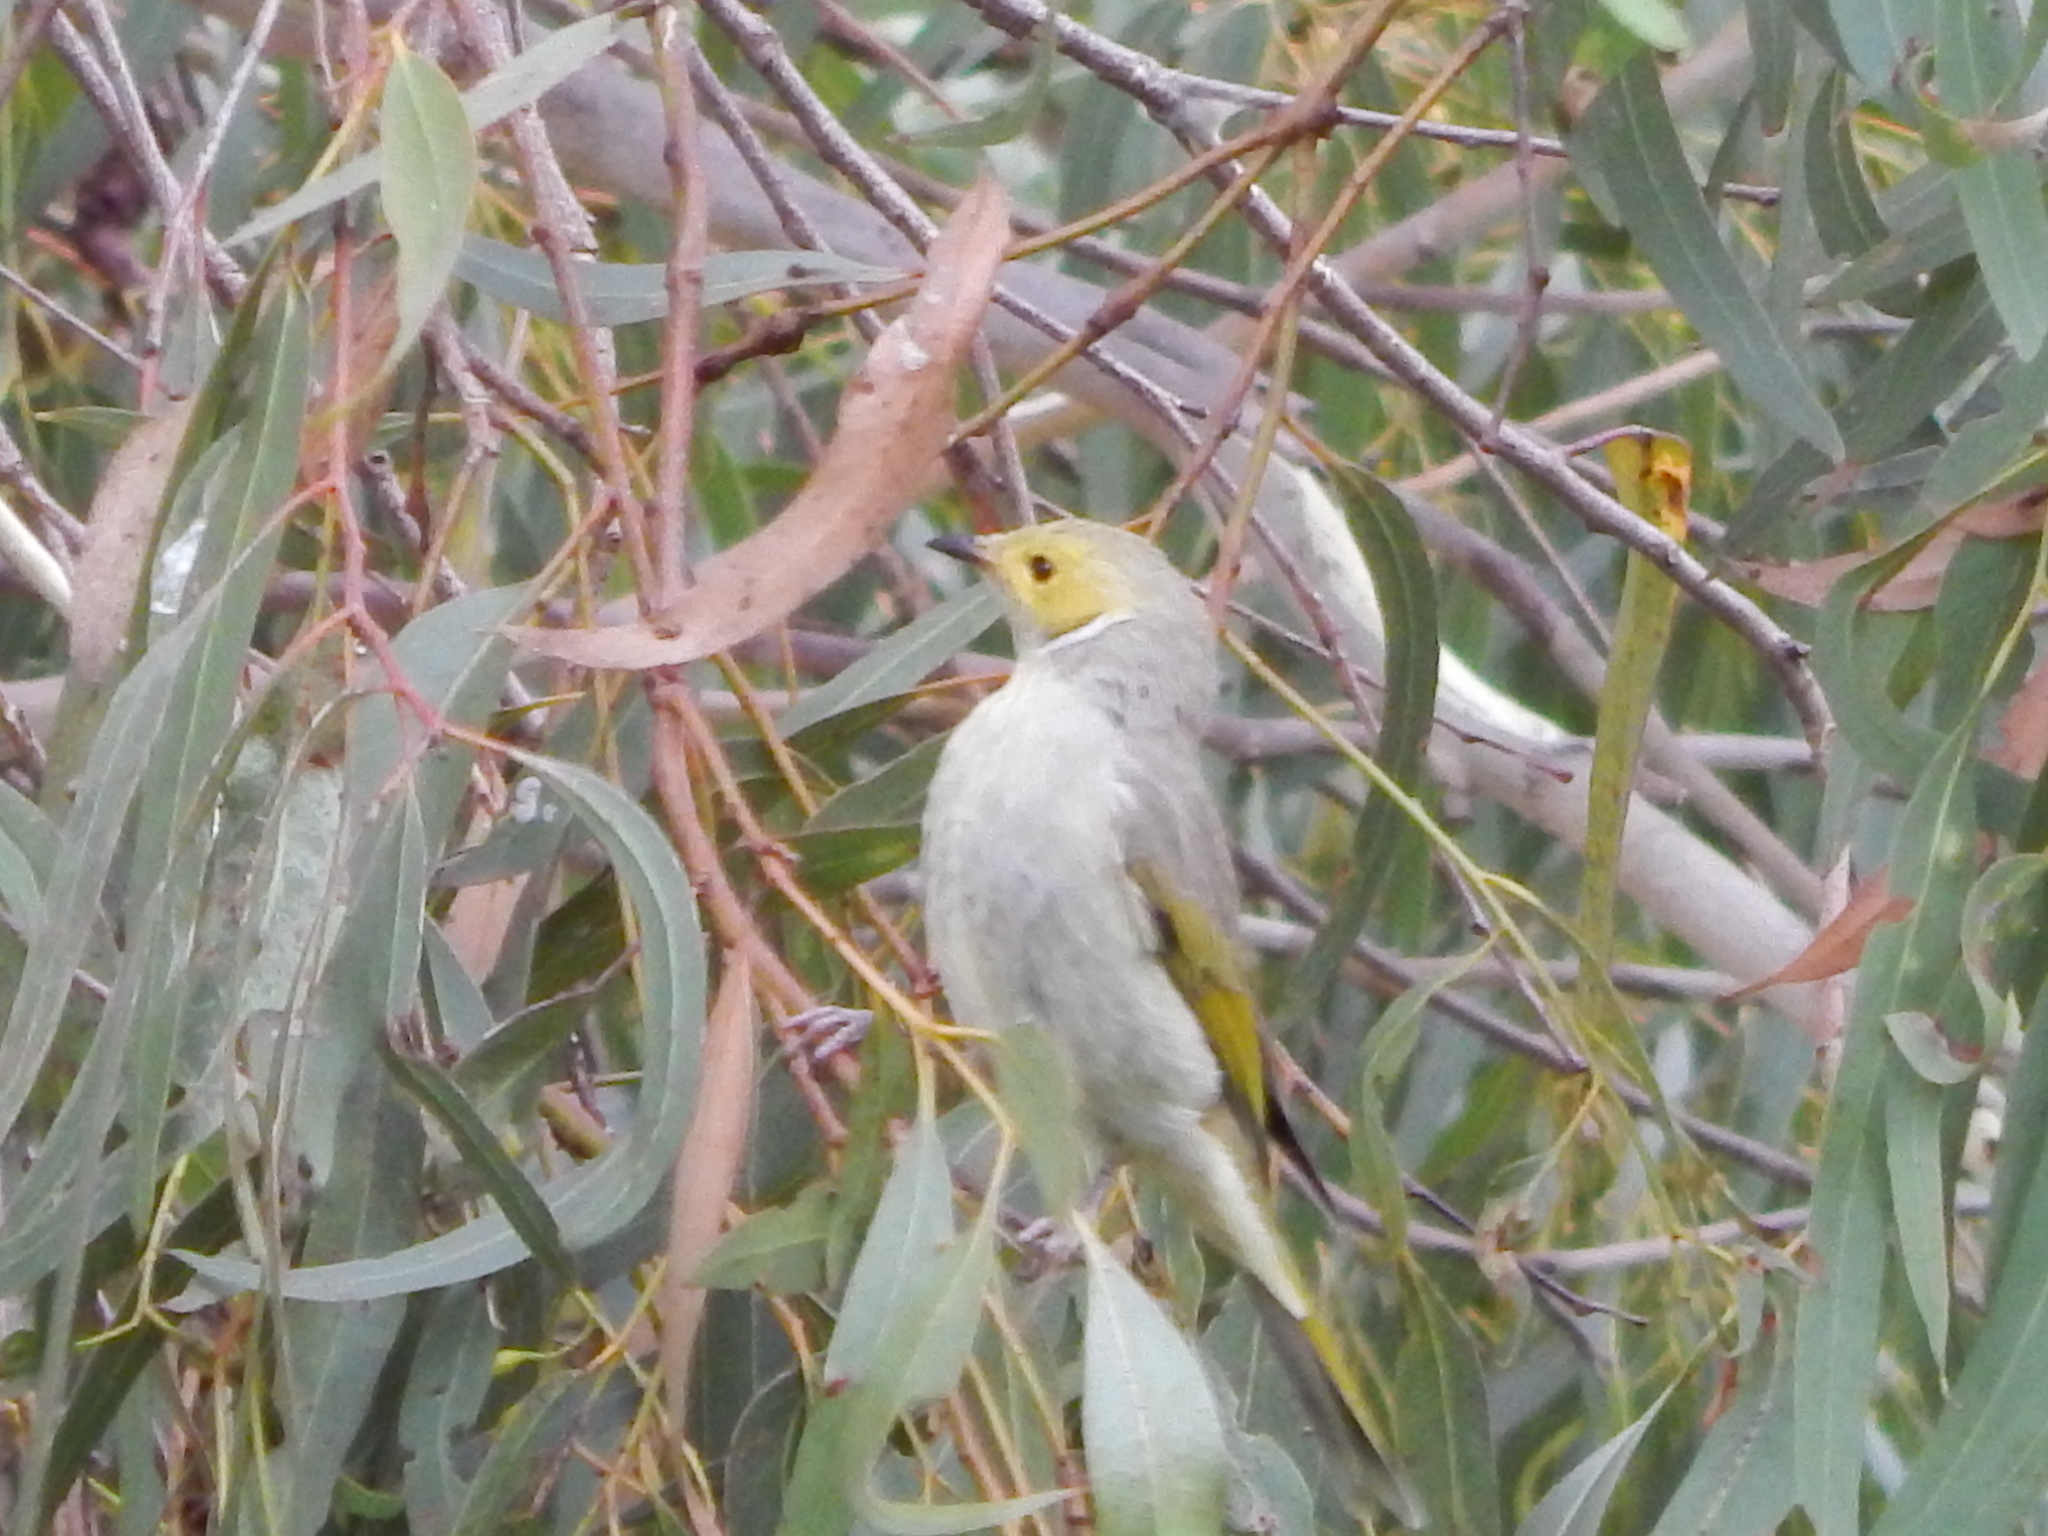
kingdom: Animalia
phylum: Chordata
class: Aves
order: Passeriformes
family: Meliphagidae
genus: Ptilotula
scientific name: Ptilotula penicillata
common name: White-plumed honeyeater
